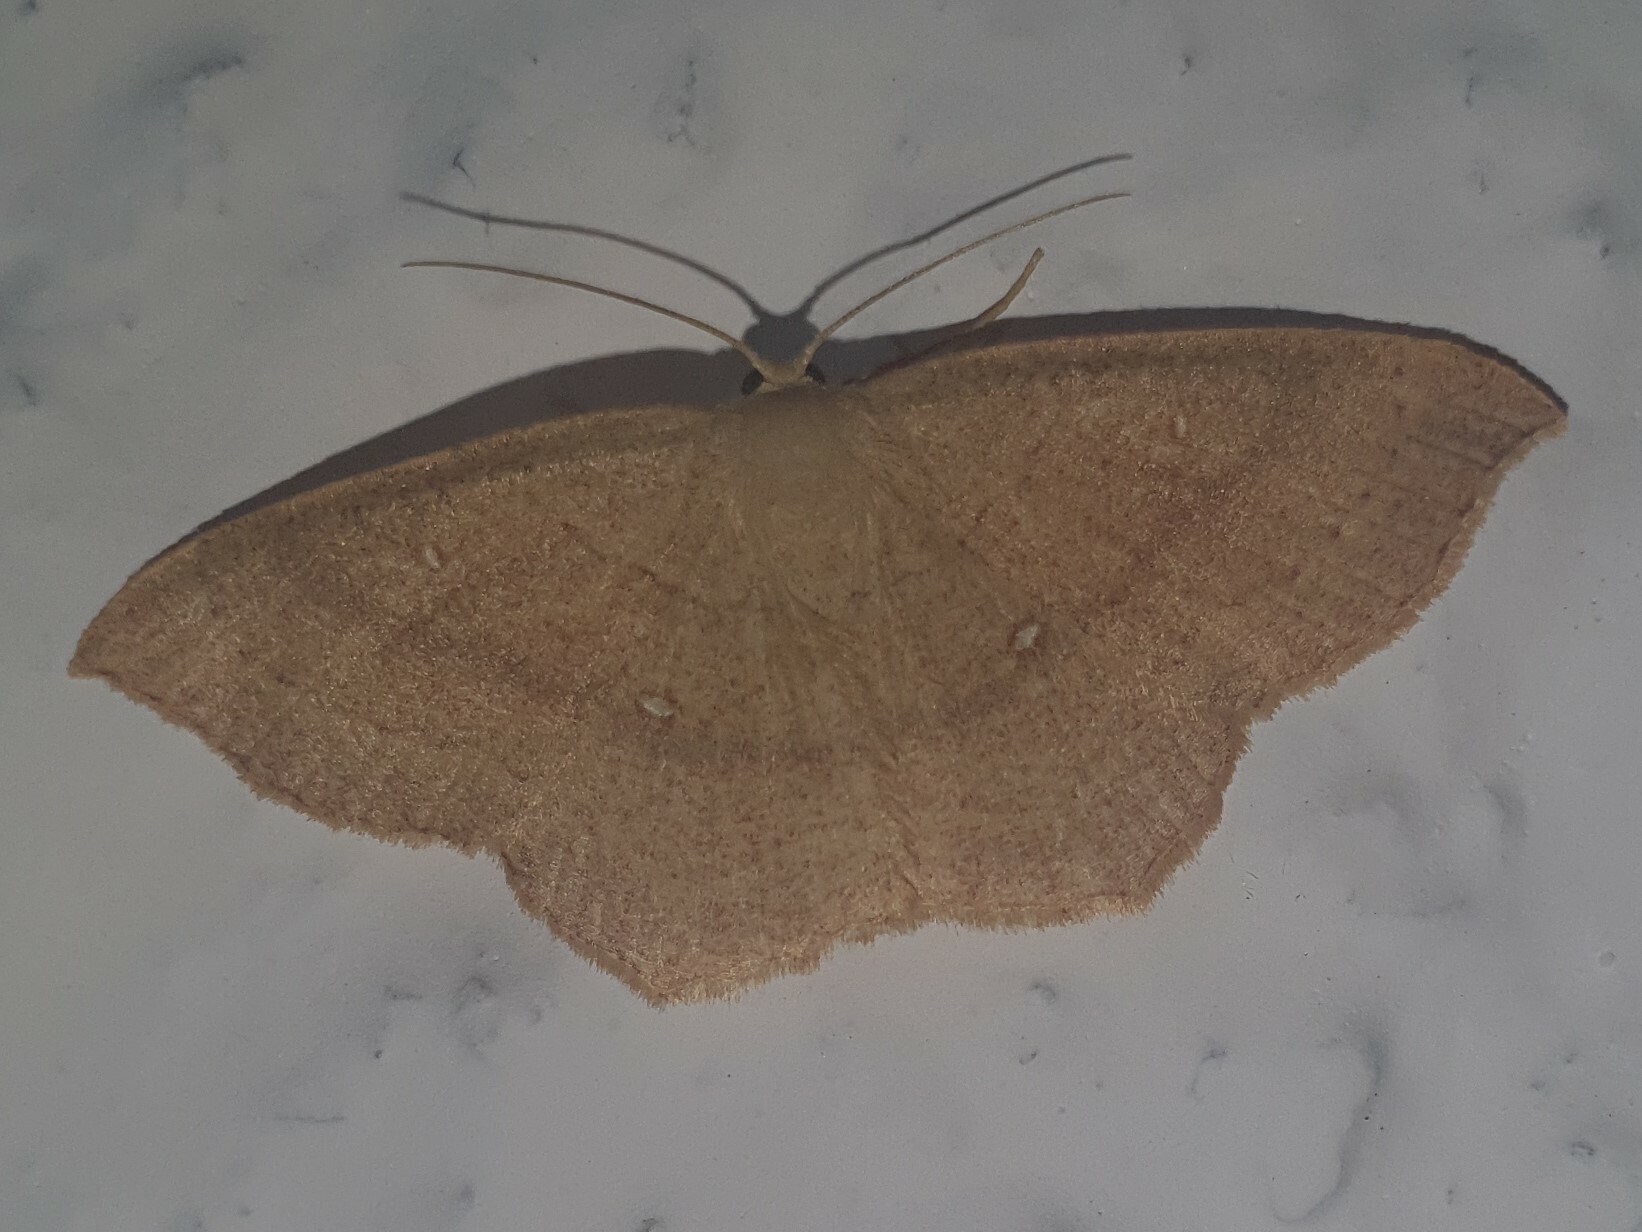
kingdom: Animalia
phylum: Arthropoda
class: Insecta
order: Lepidoptera
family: Geometridae
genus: Cyclophora
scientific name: Cyclophora linearia
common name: Clay triple-lines
